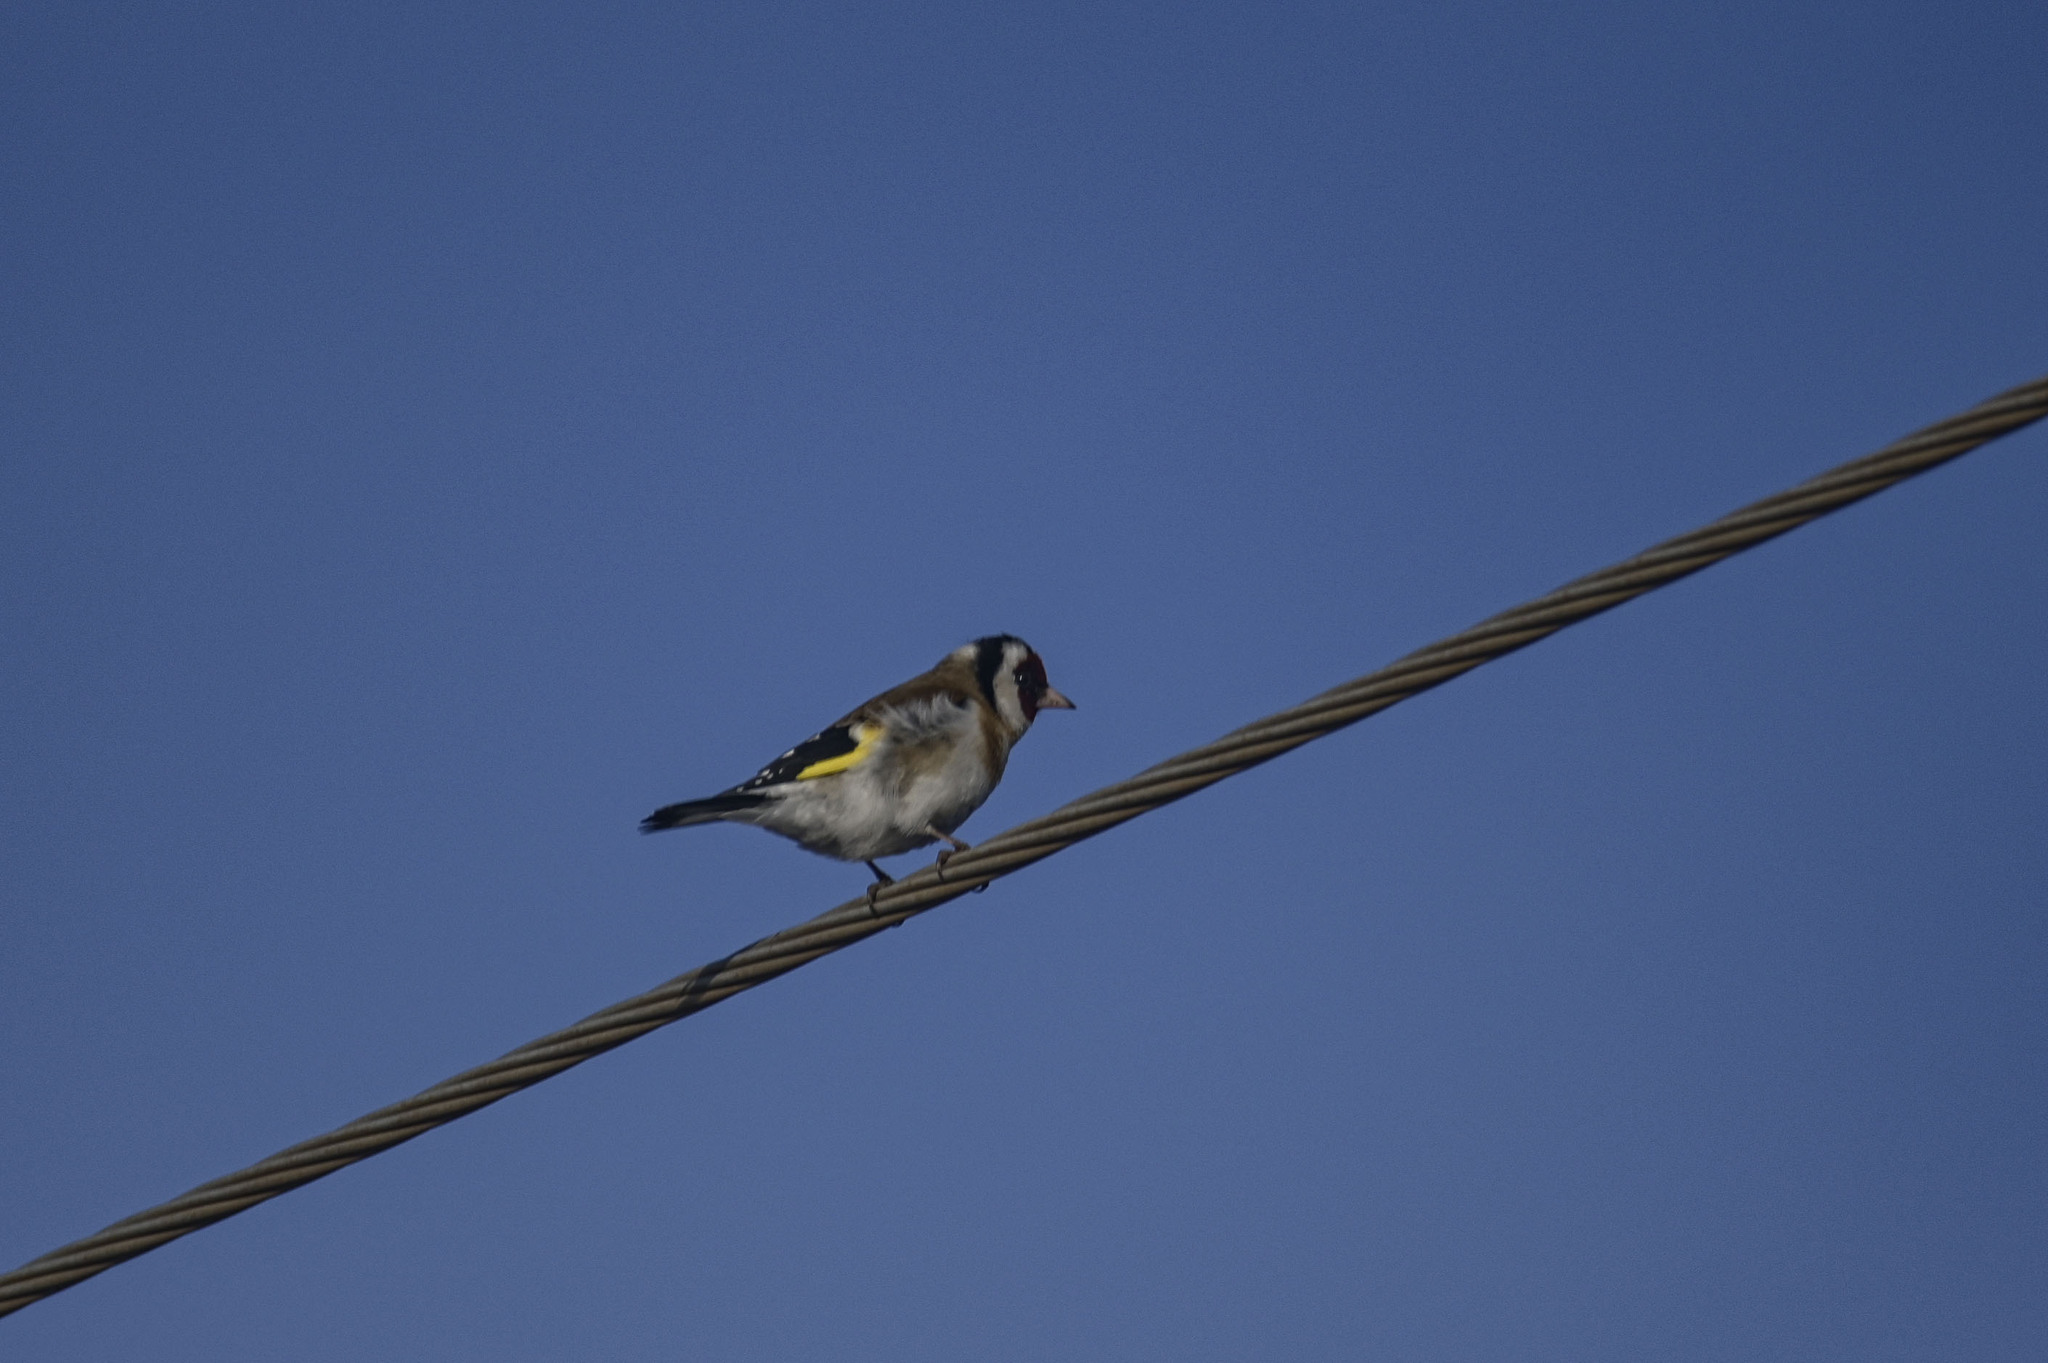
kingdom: Animalia
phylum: Chordata
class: Aves
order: Passeriformes
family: Fringillidae
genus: Carduelis
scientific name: Carduelis carduelis
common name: European goldfinch
